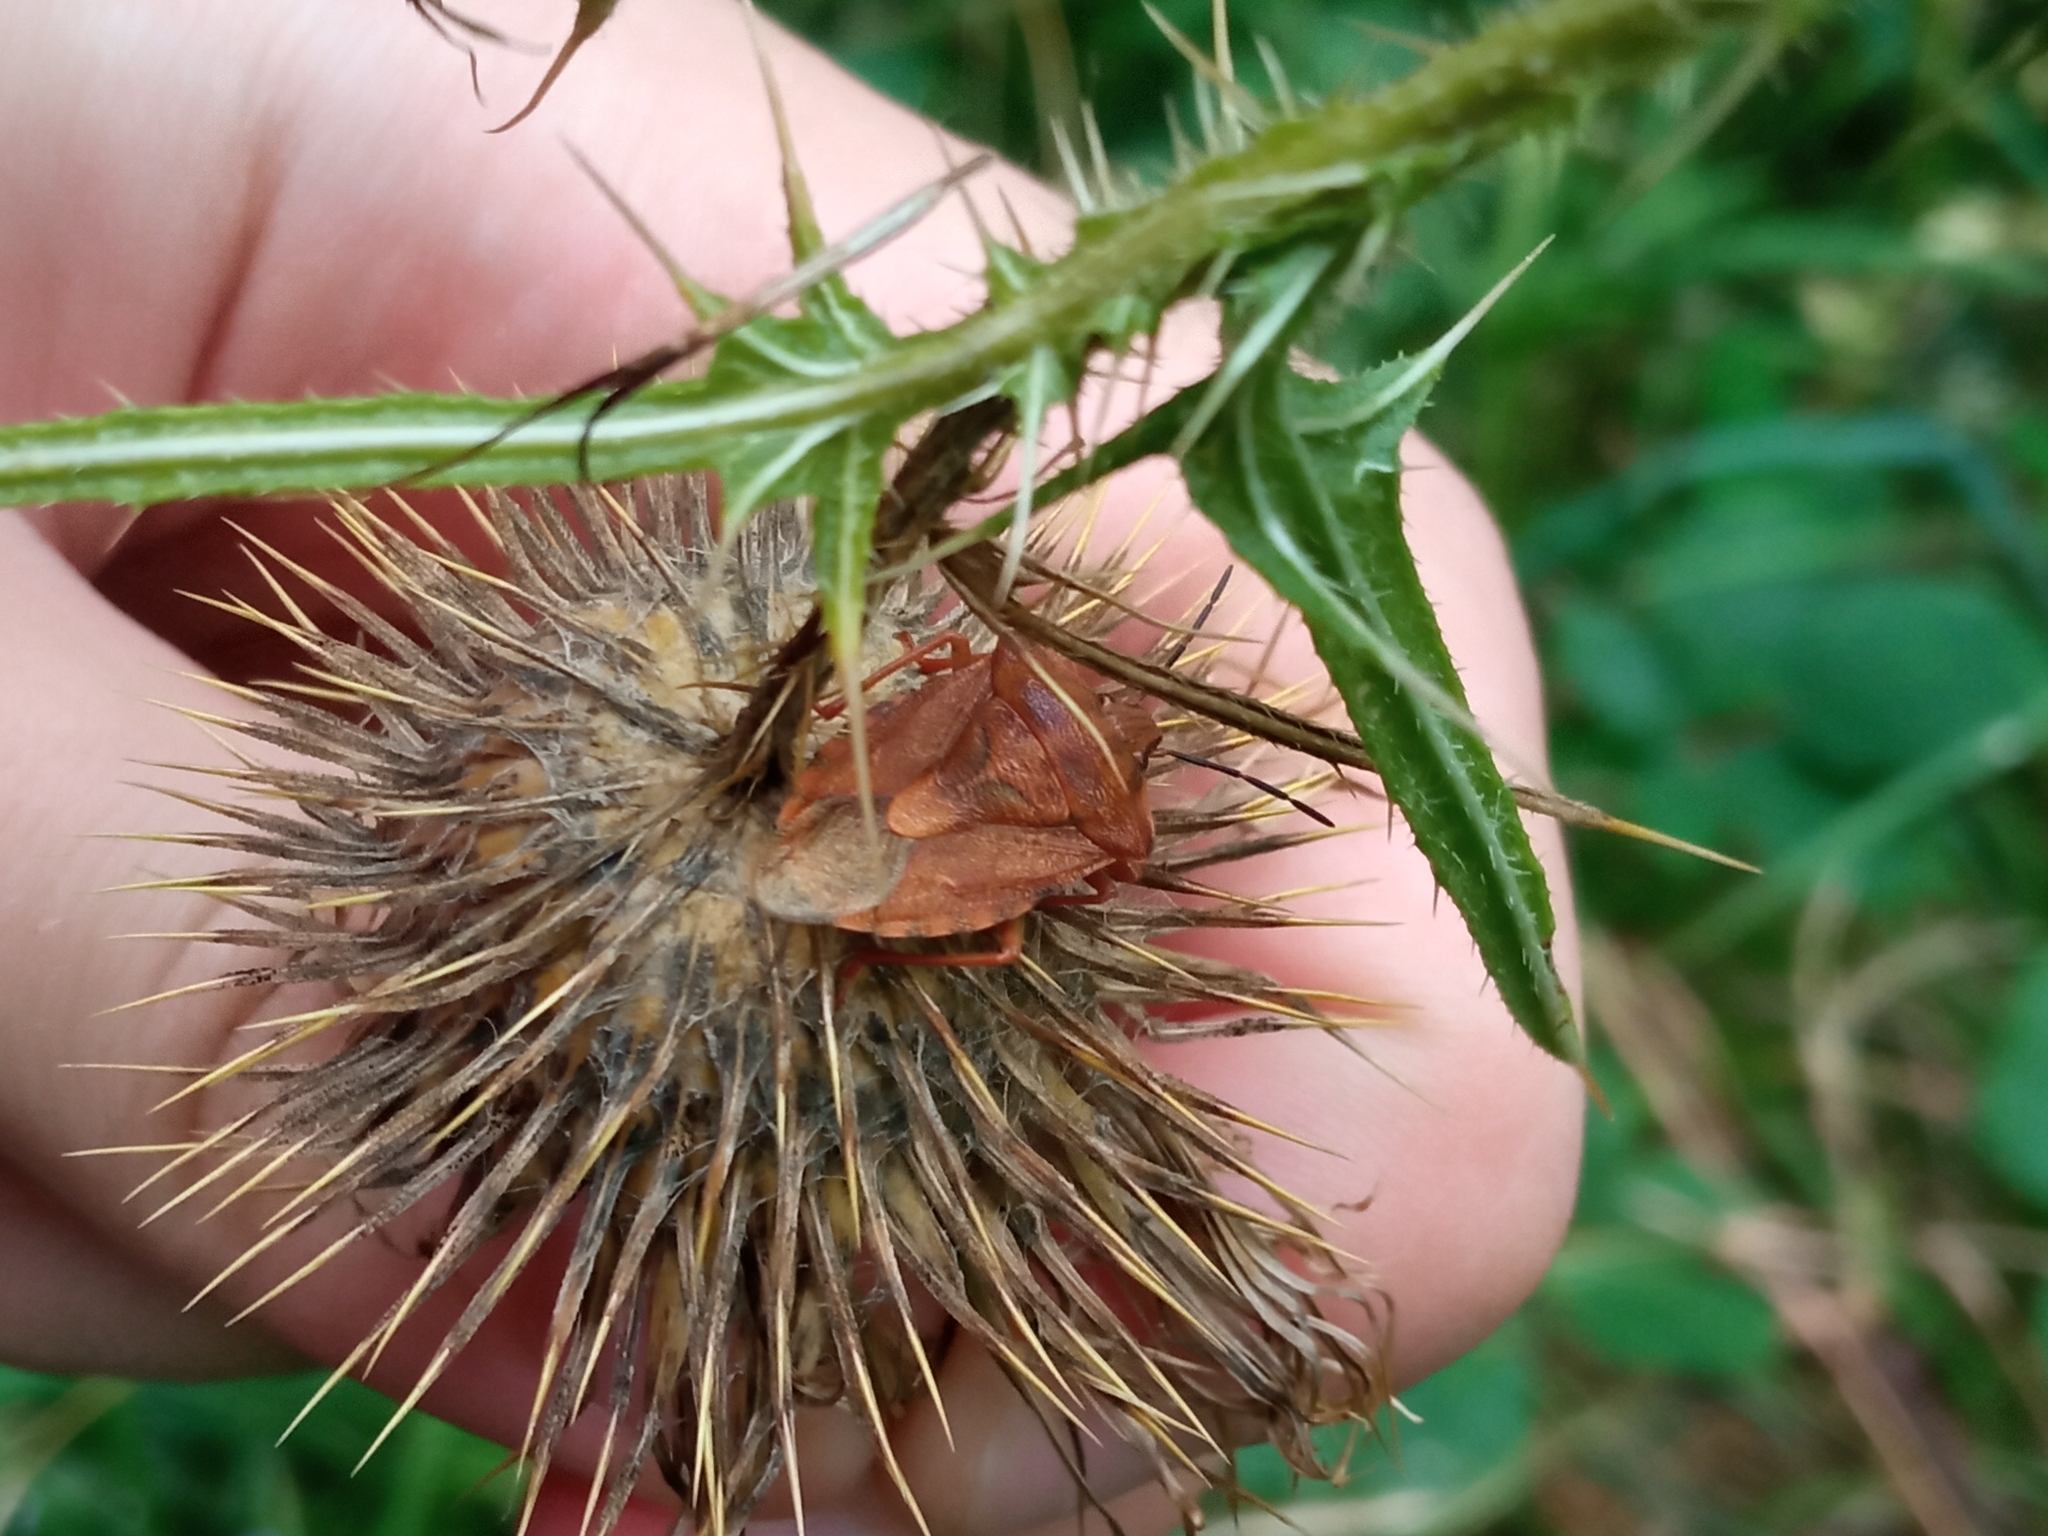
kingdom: Animalia
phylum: Arthropoda
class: Insecta
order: Hemiptera
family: Pentatomidae
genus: Carpocoris
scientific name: Carpocoris purpureipennis
